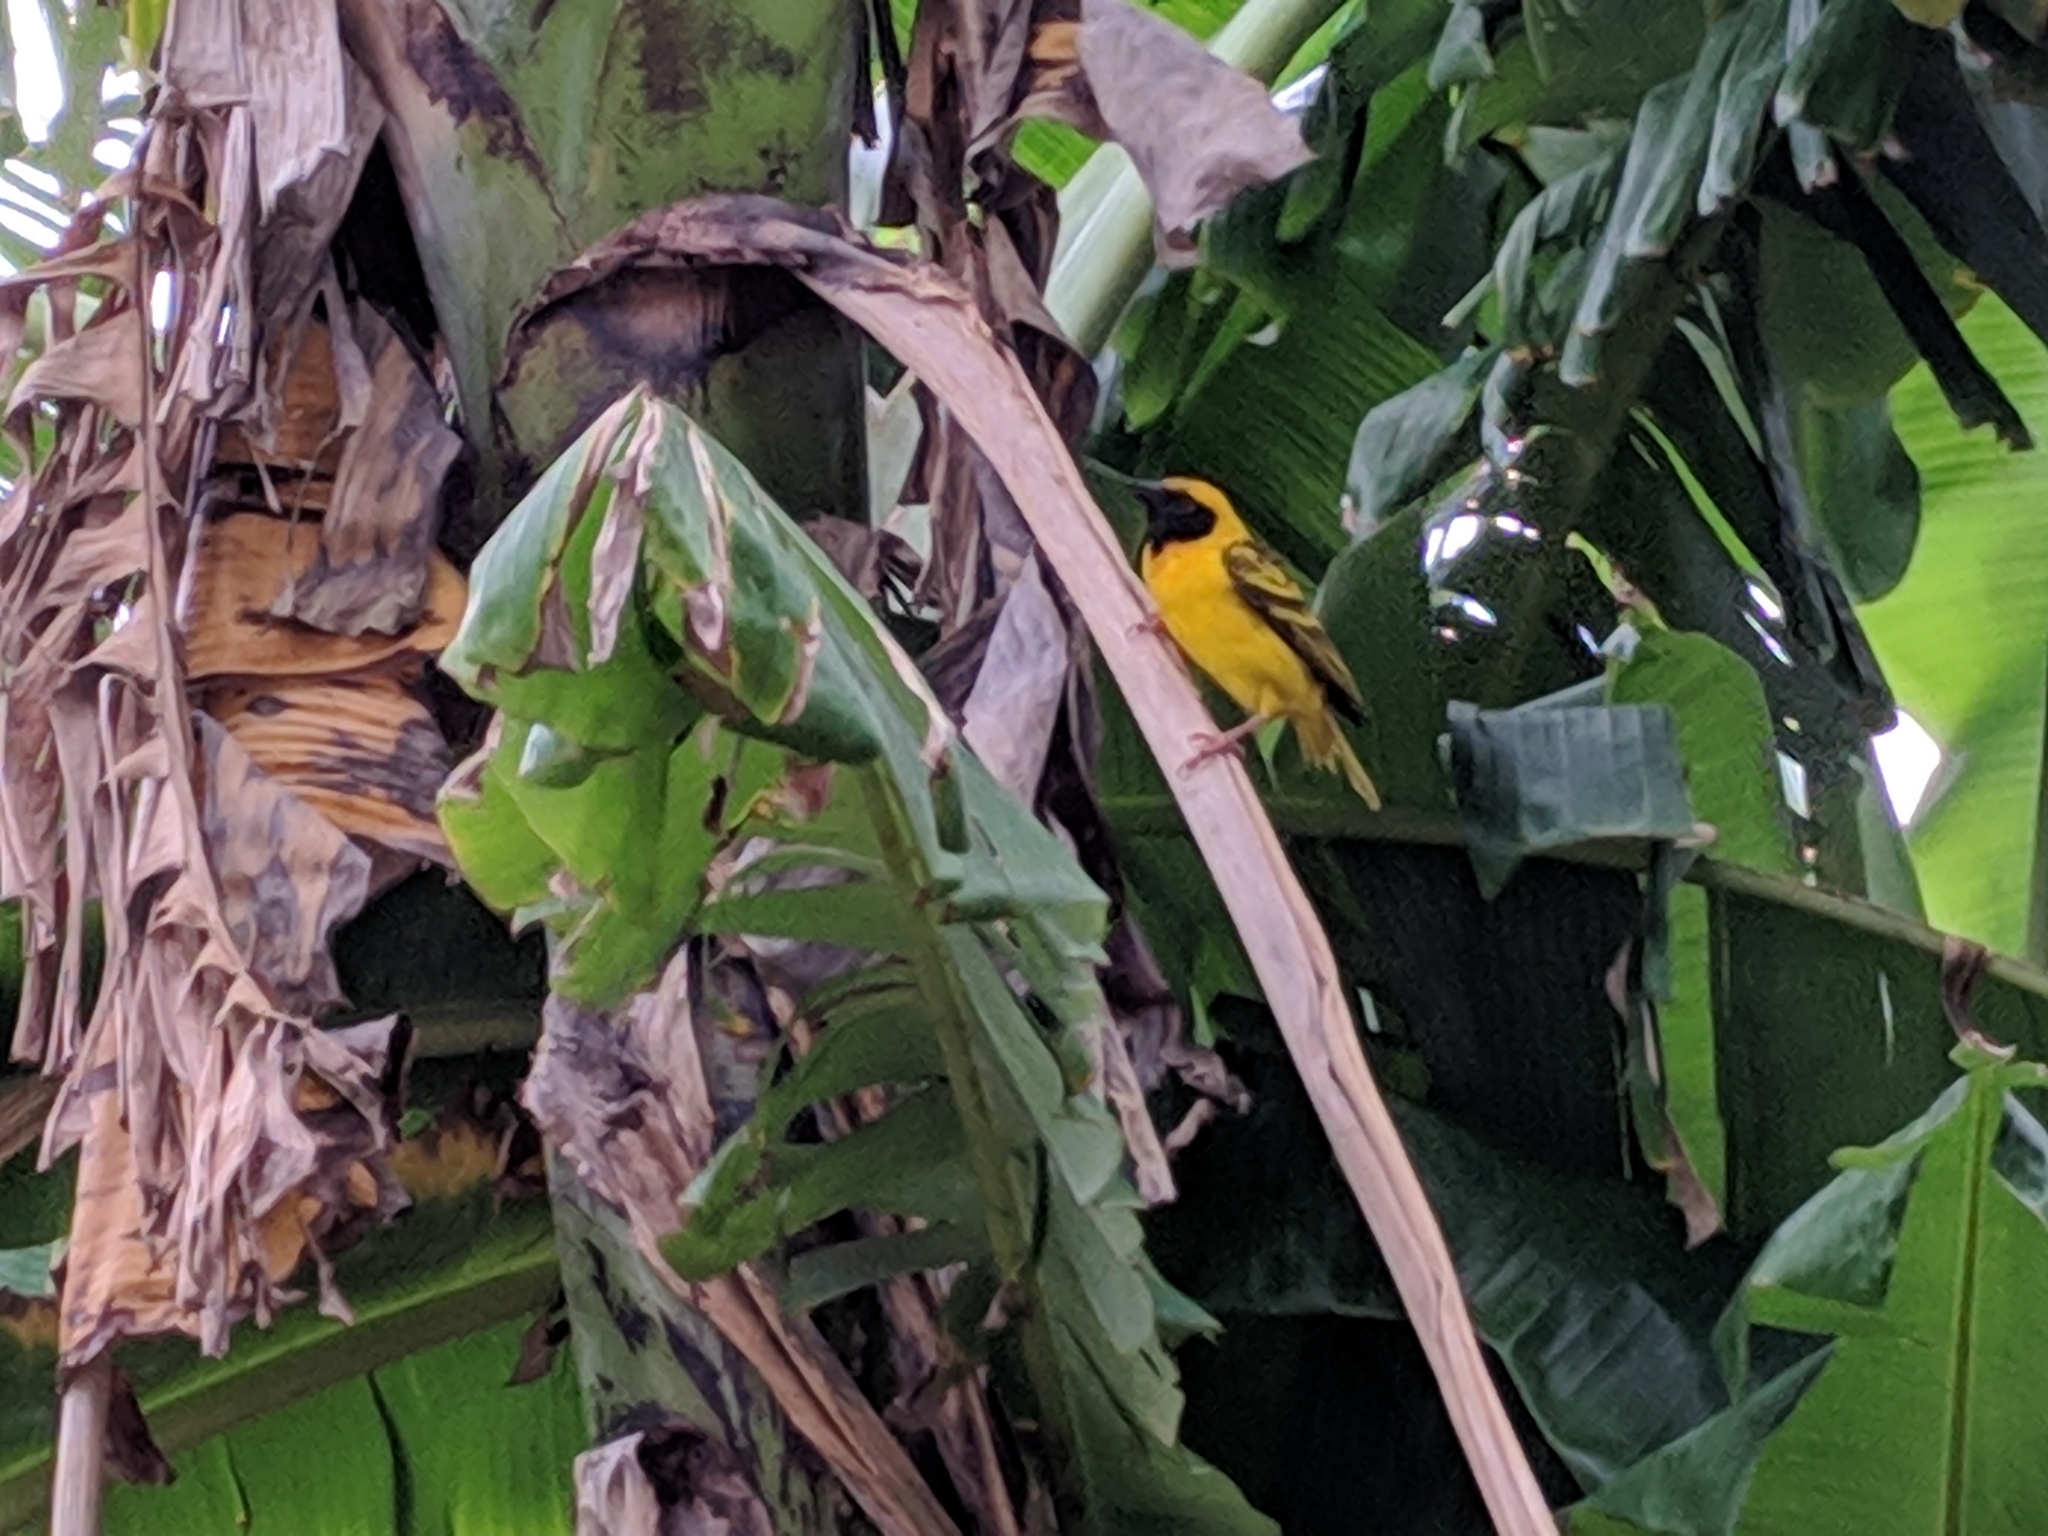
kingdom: Animalia
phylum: Chordata
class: Aves
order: Passeriformes
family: Ploceidae
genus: Ploceus
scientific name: Ploceus cucullatus
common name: Village weaver
